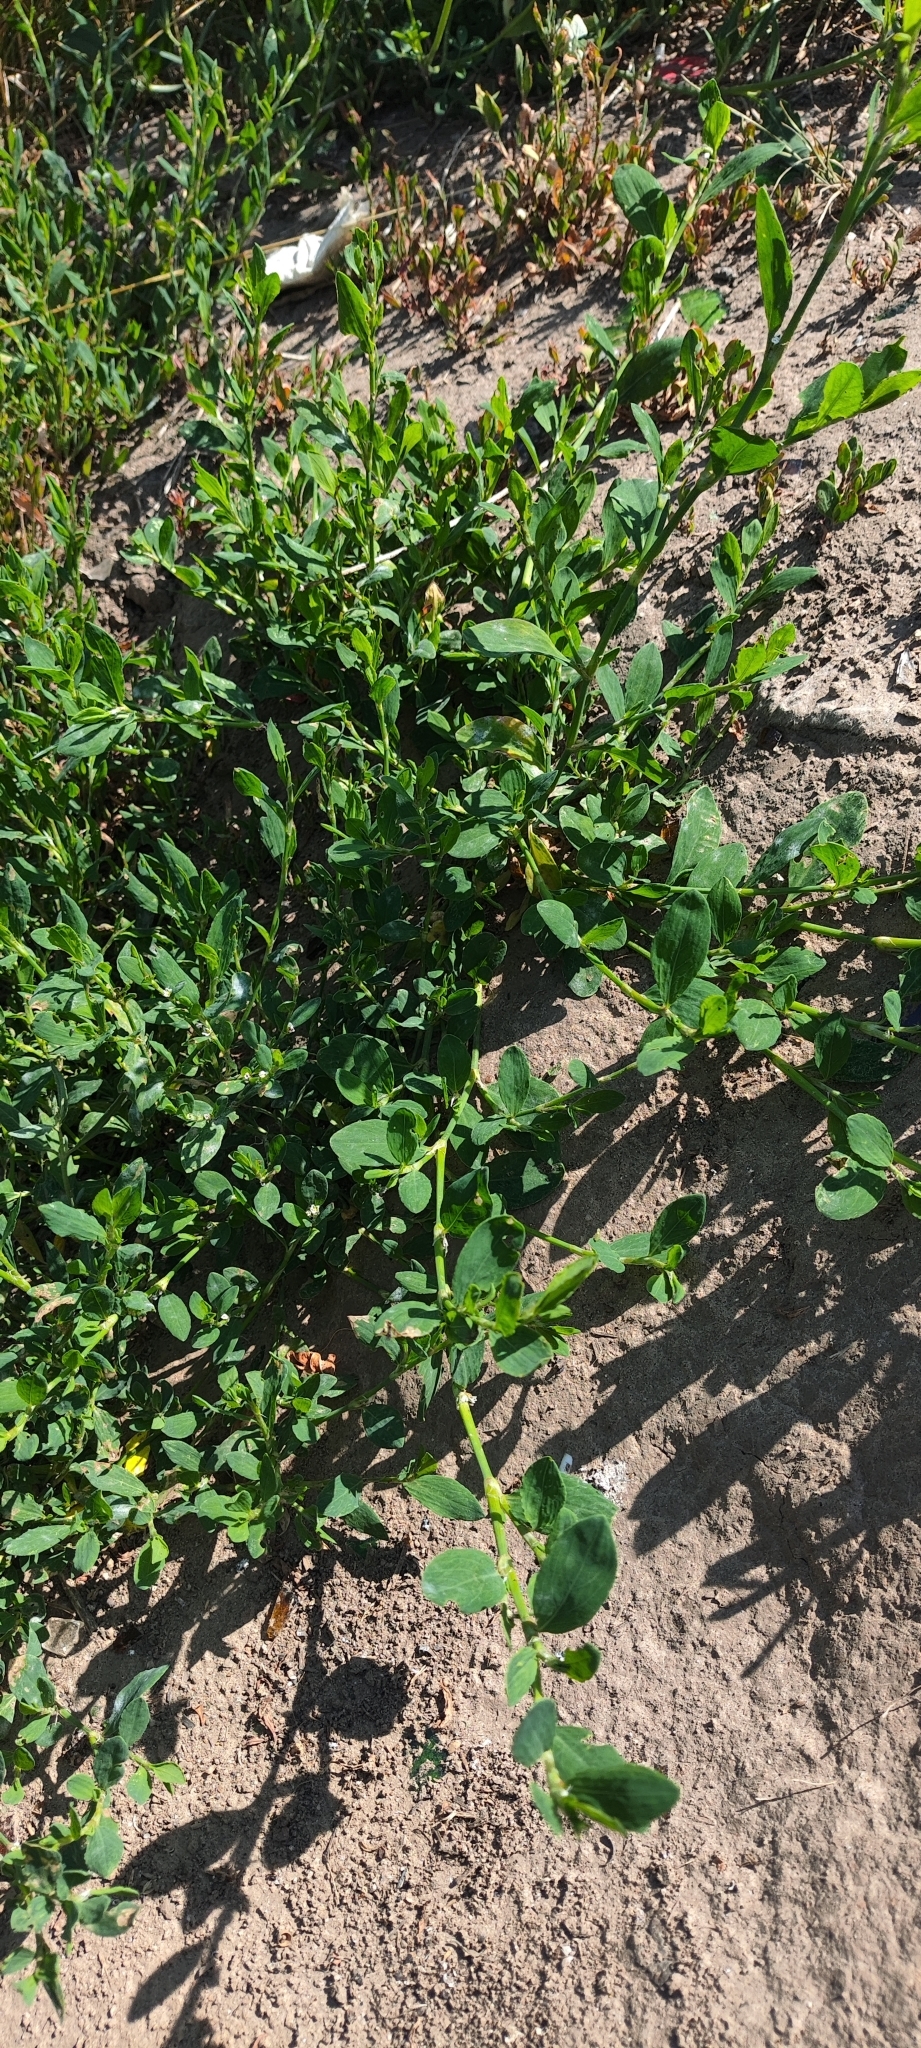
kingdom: Plantae
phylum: Tracheophyta
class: Magnoliopsida
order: Caryophyllales
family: Polygonaceae
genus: Polygonum
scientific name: Polygonum
